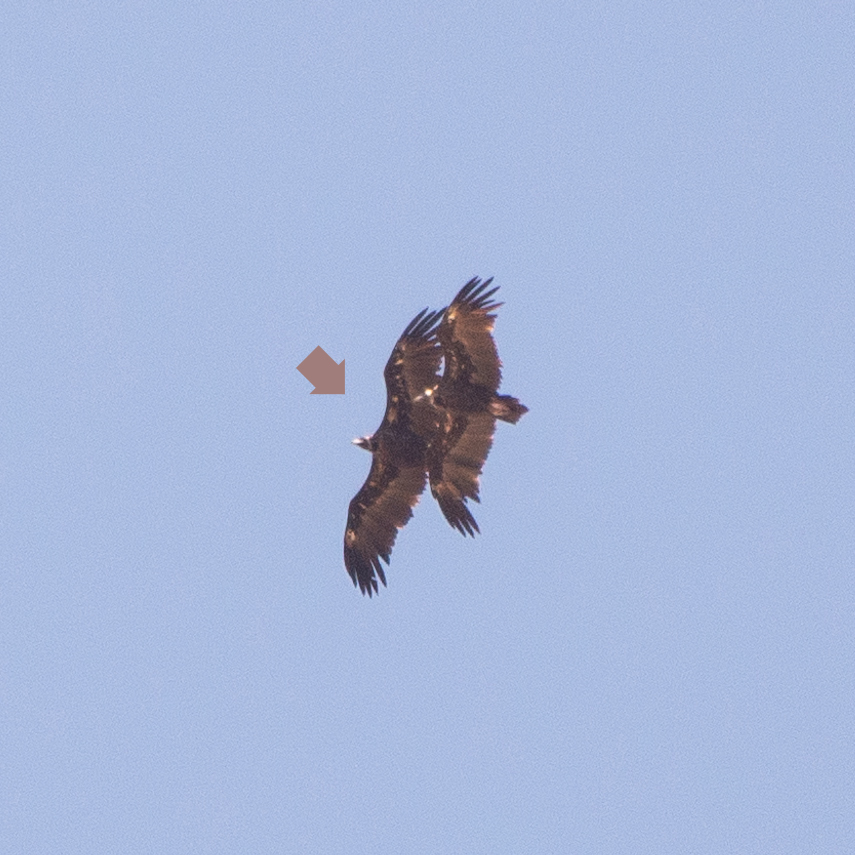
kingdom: Animalia
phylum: Chordata
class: Aves
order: Accipitriformes
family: Accipitridae
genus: Aegypius
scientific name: Aegypius monachus
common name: Cinereous vulture
